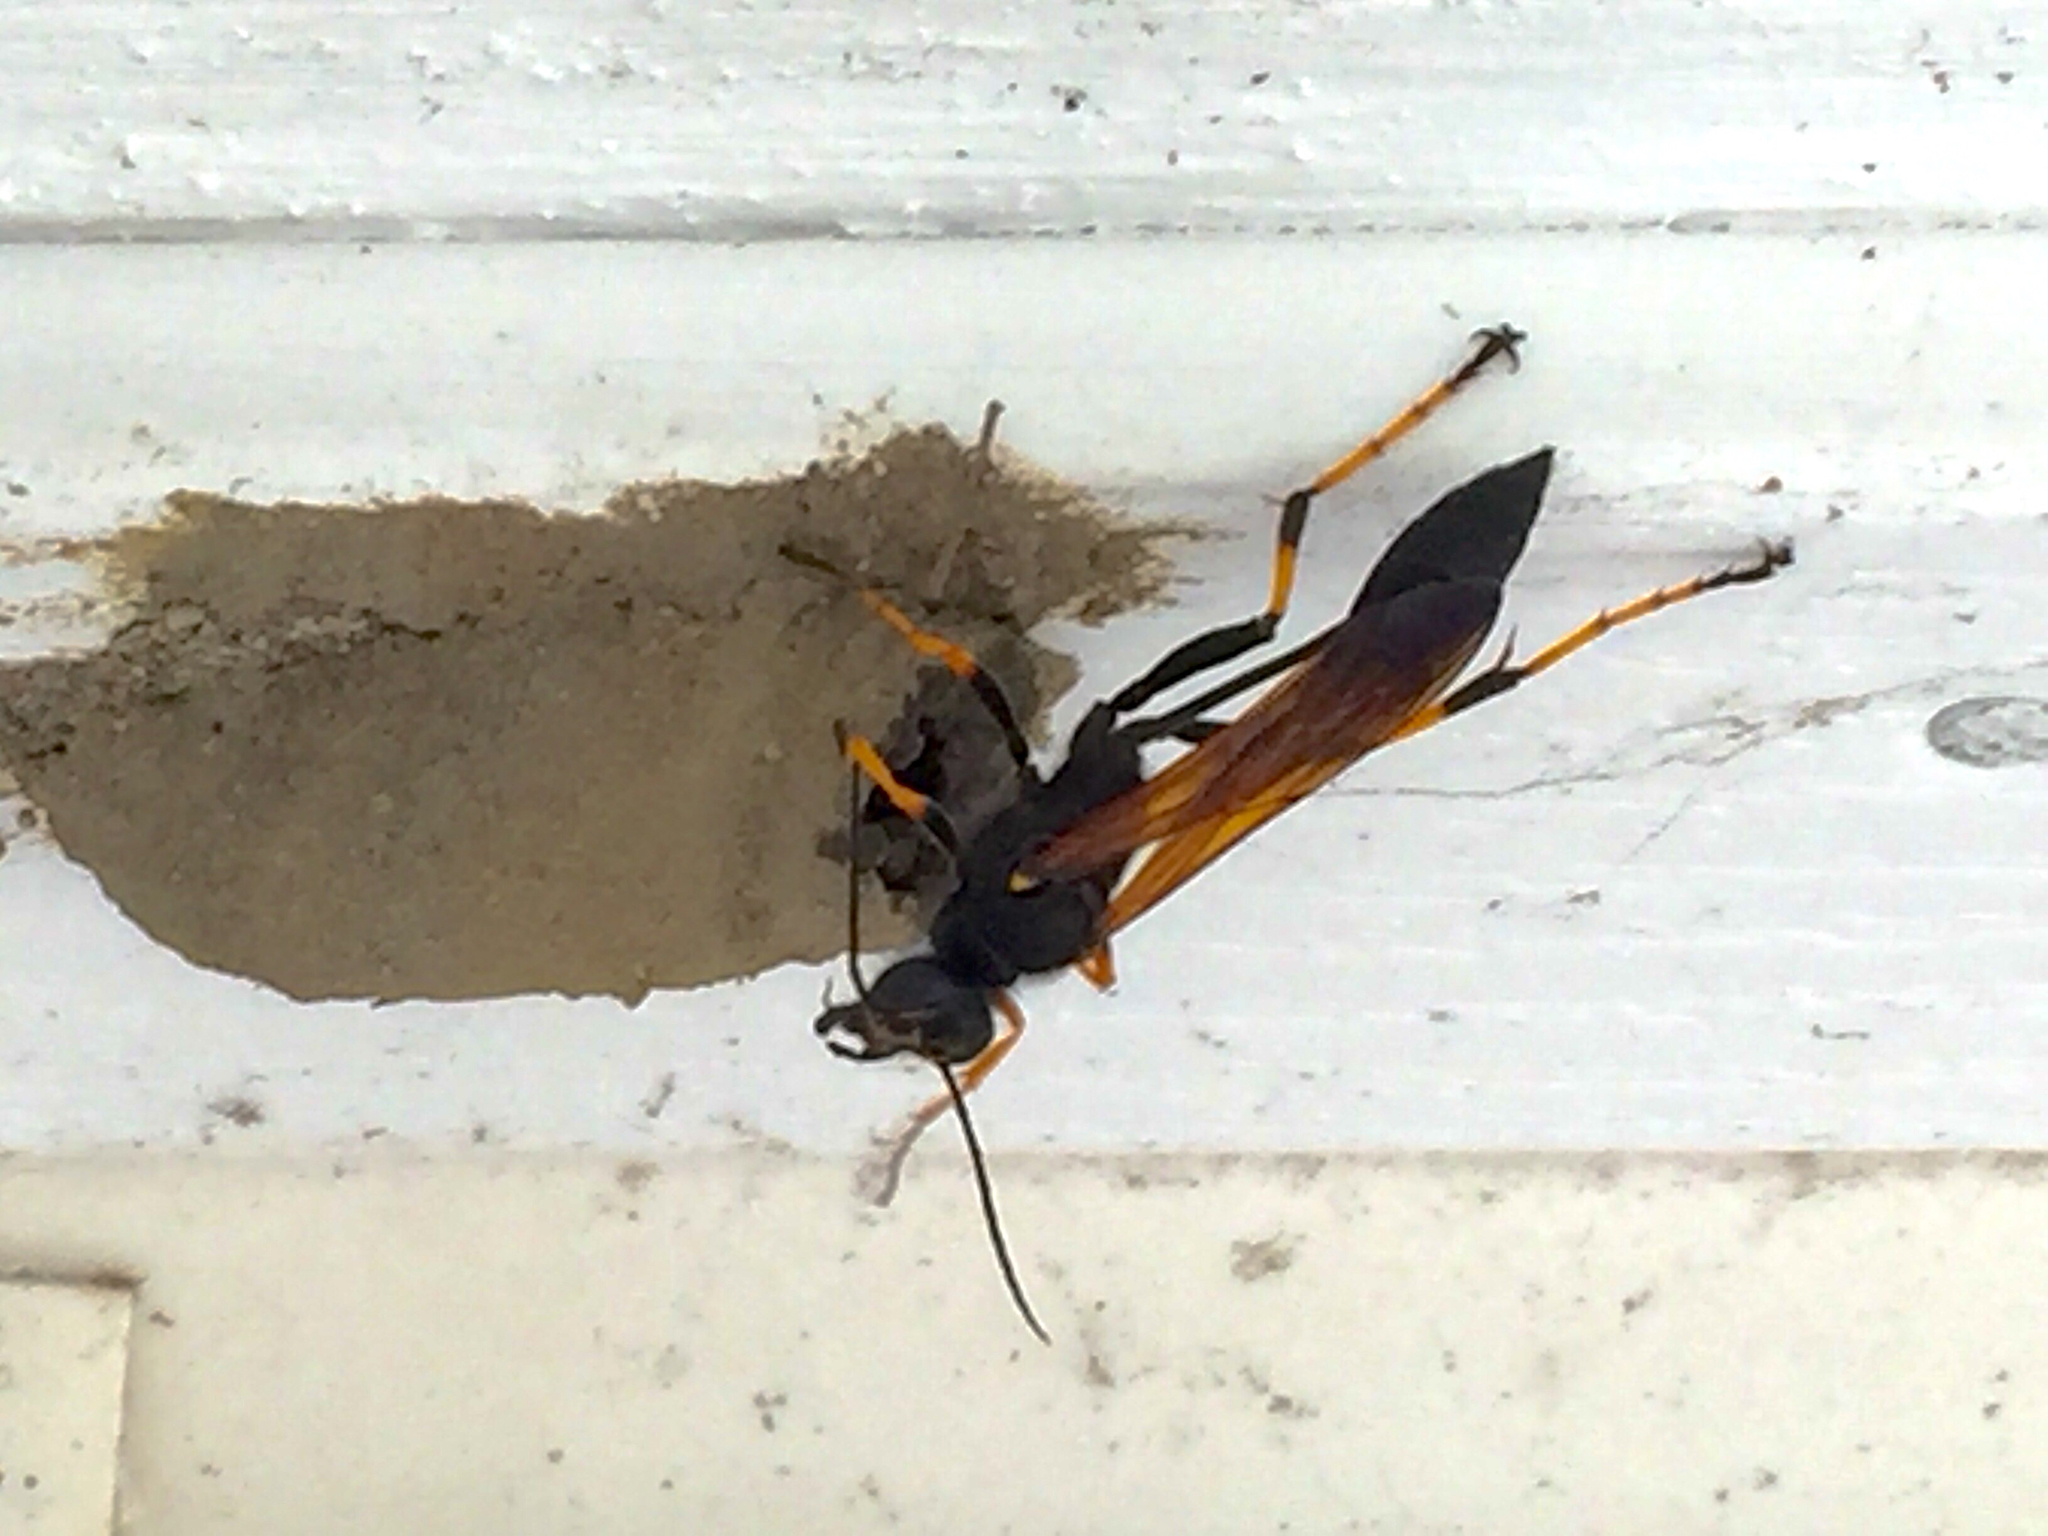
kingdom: Animalia
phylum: Arthropoda
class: Insecta
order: Hymenoptera
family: Sphecidae
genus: Sceliphron
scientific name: Sceliphron caementarium
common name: Mud dauber
